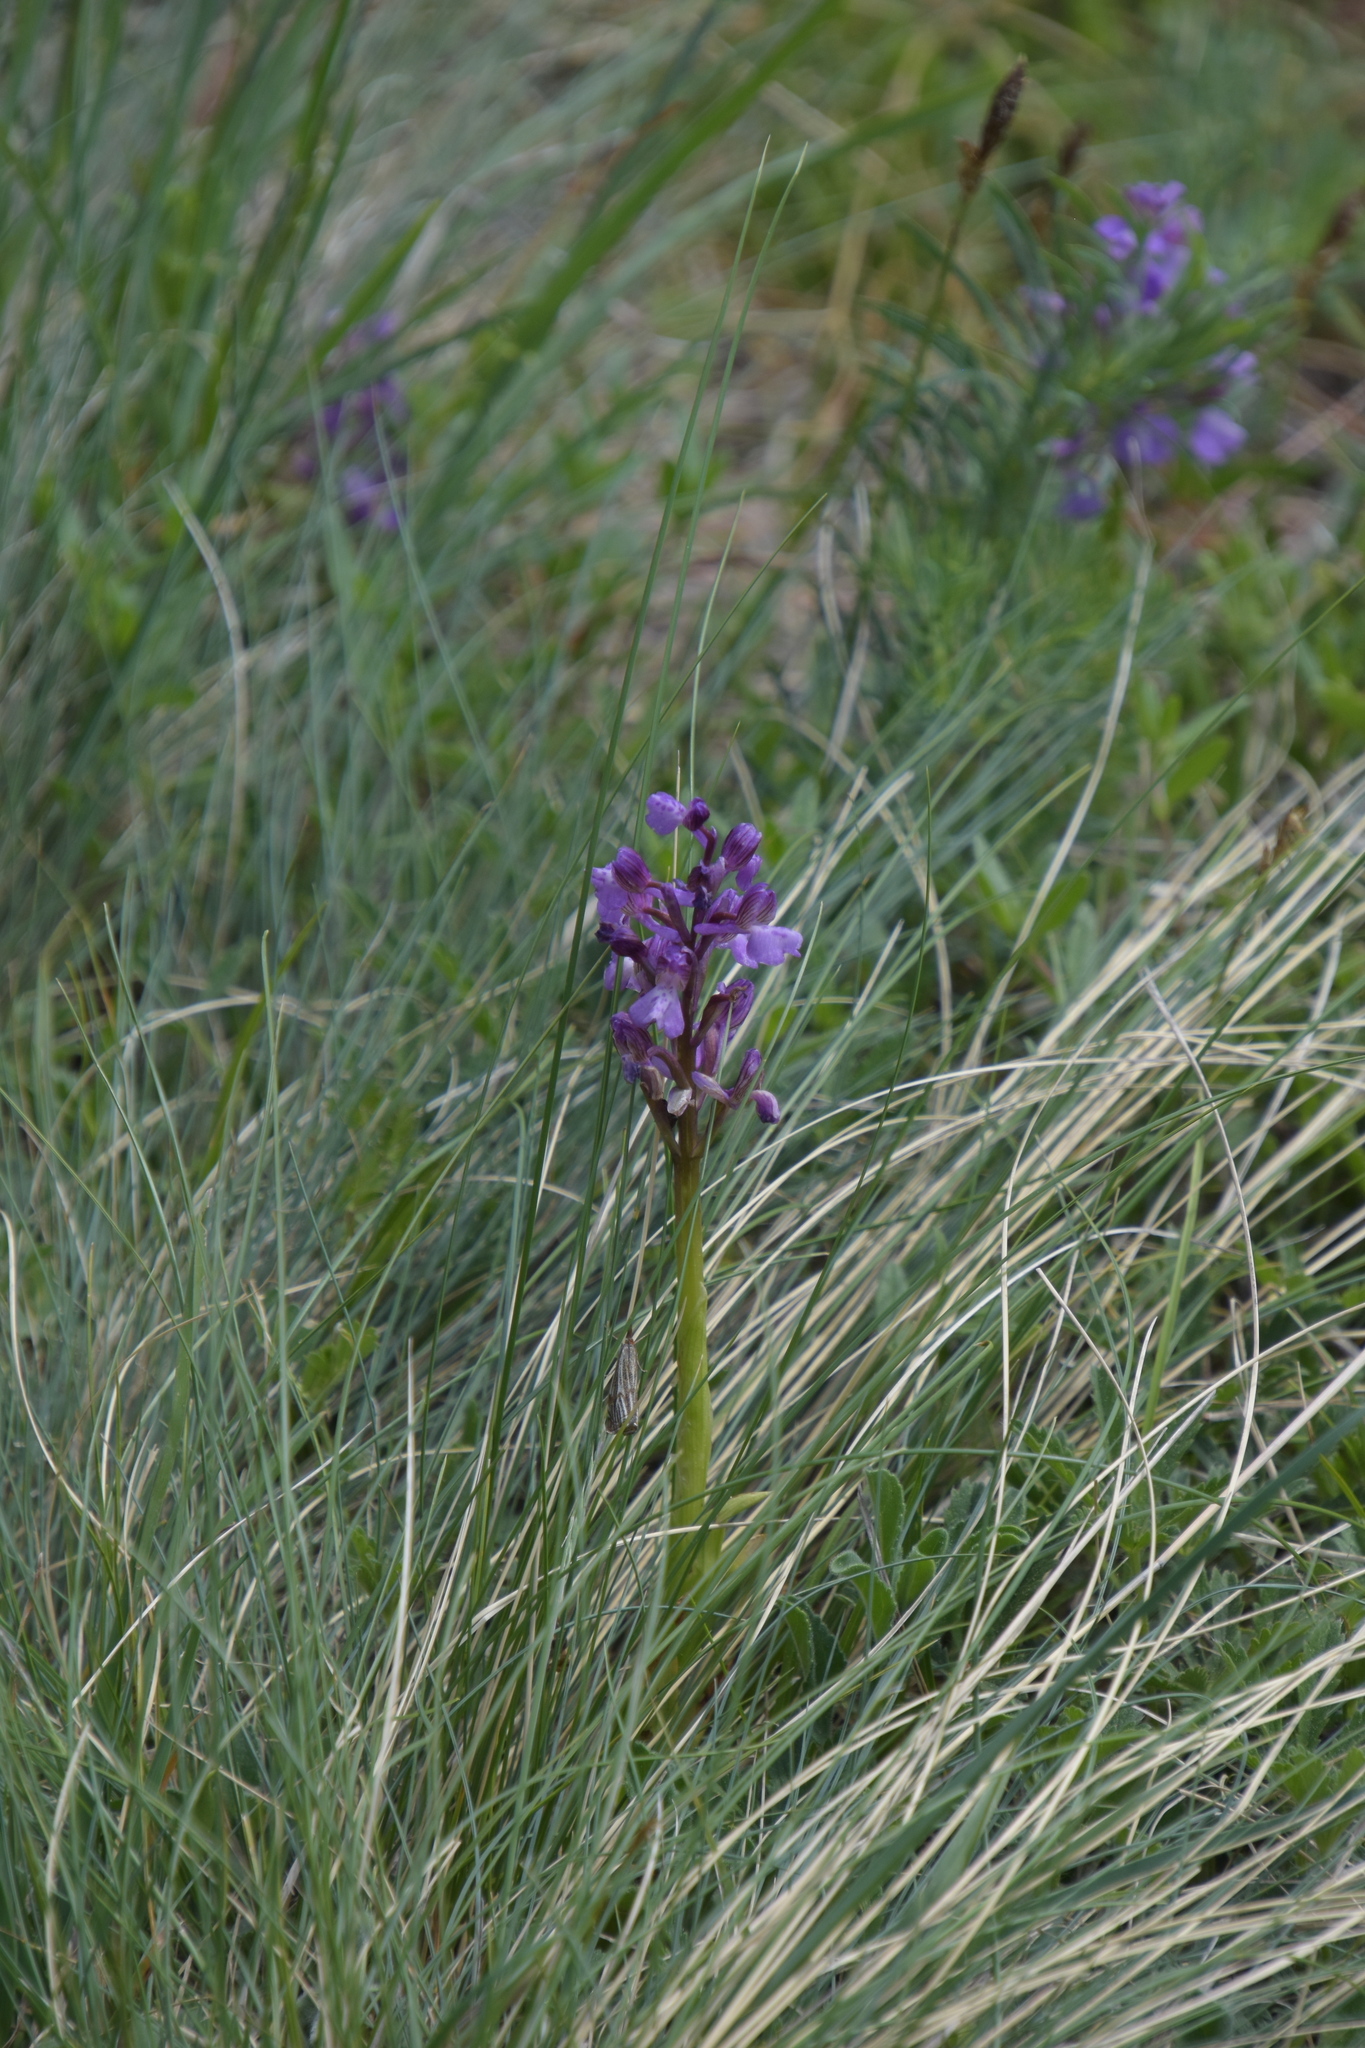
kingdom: Plantae
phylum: Tracheophyta
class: Liliopsida
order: Asparagales
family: Orchidaceae
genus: Anacamptis
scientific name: Anacamptis morio
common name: Green-winged orchid
